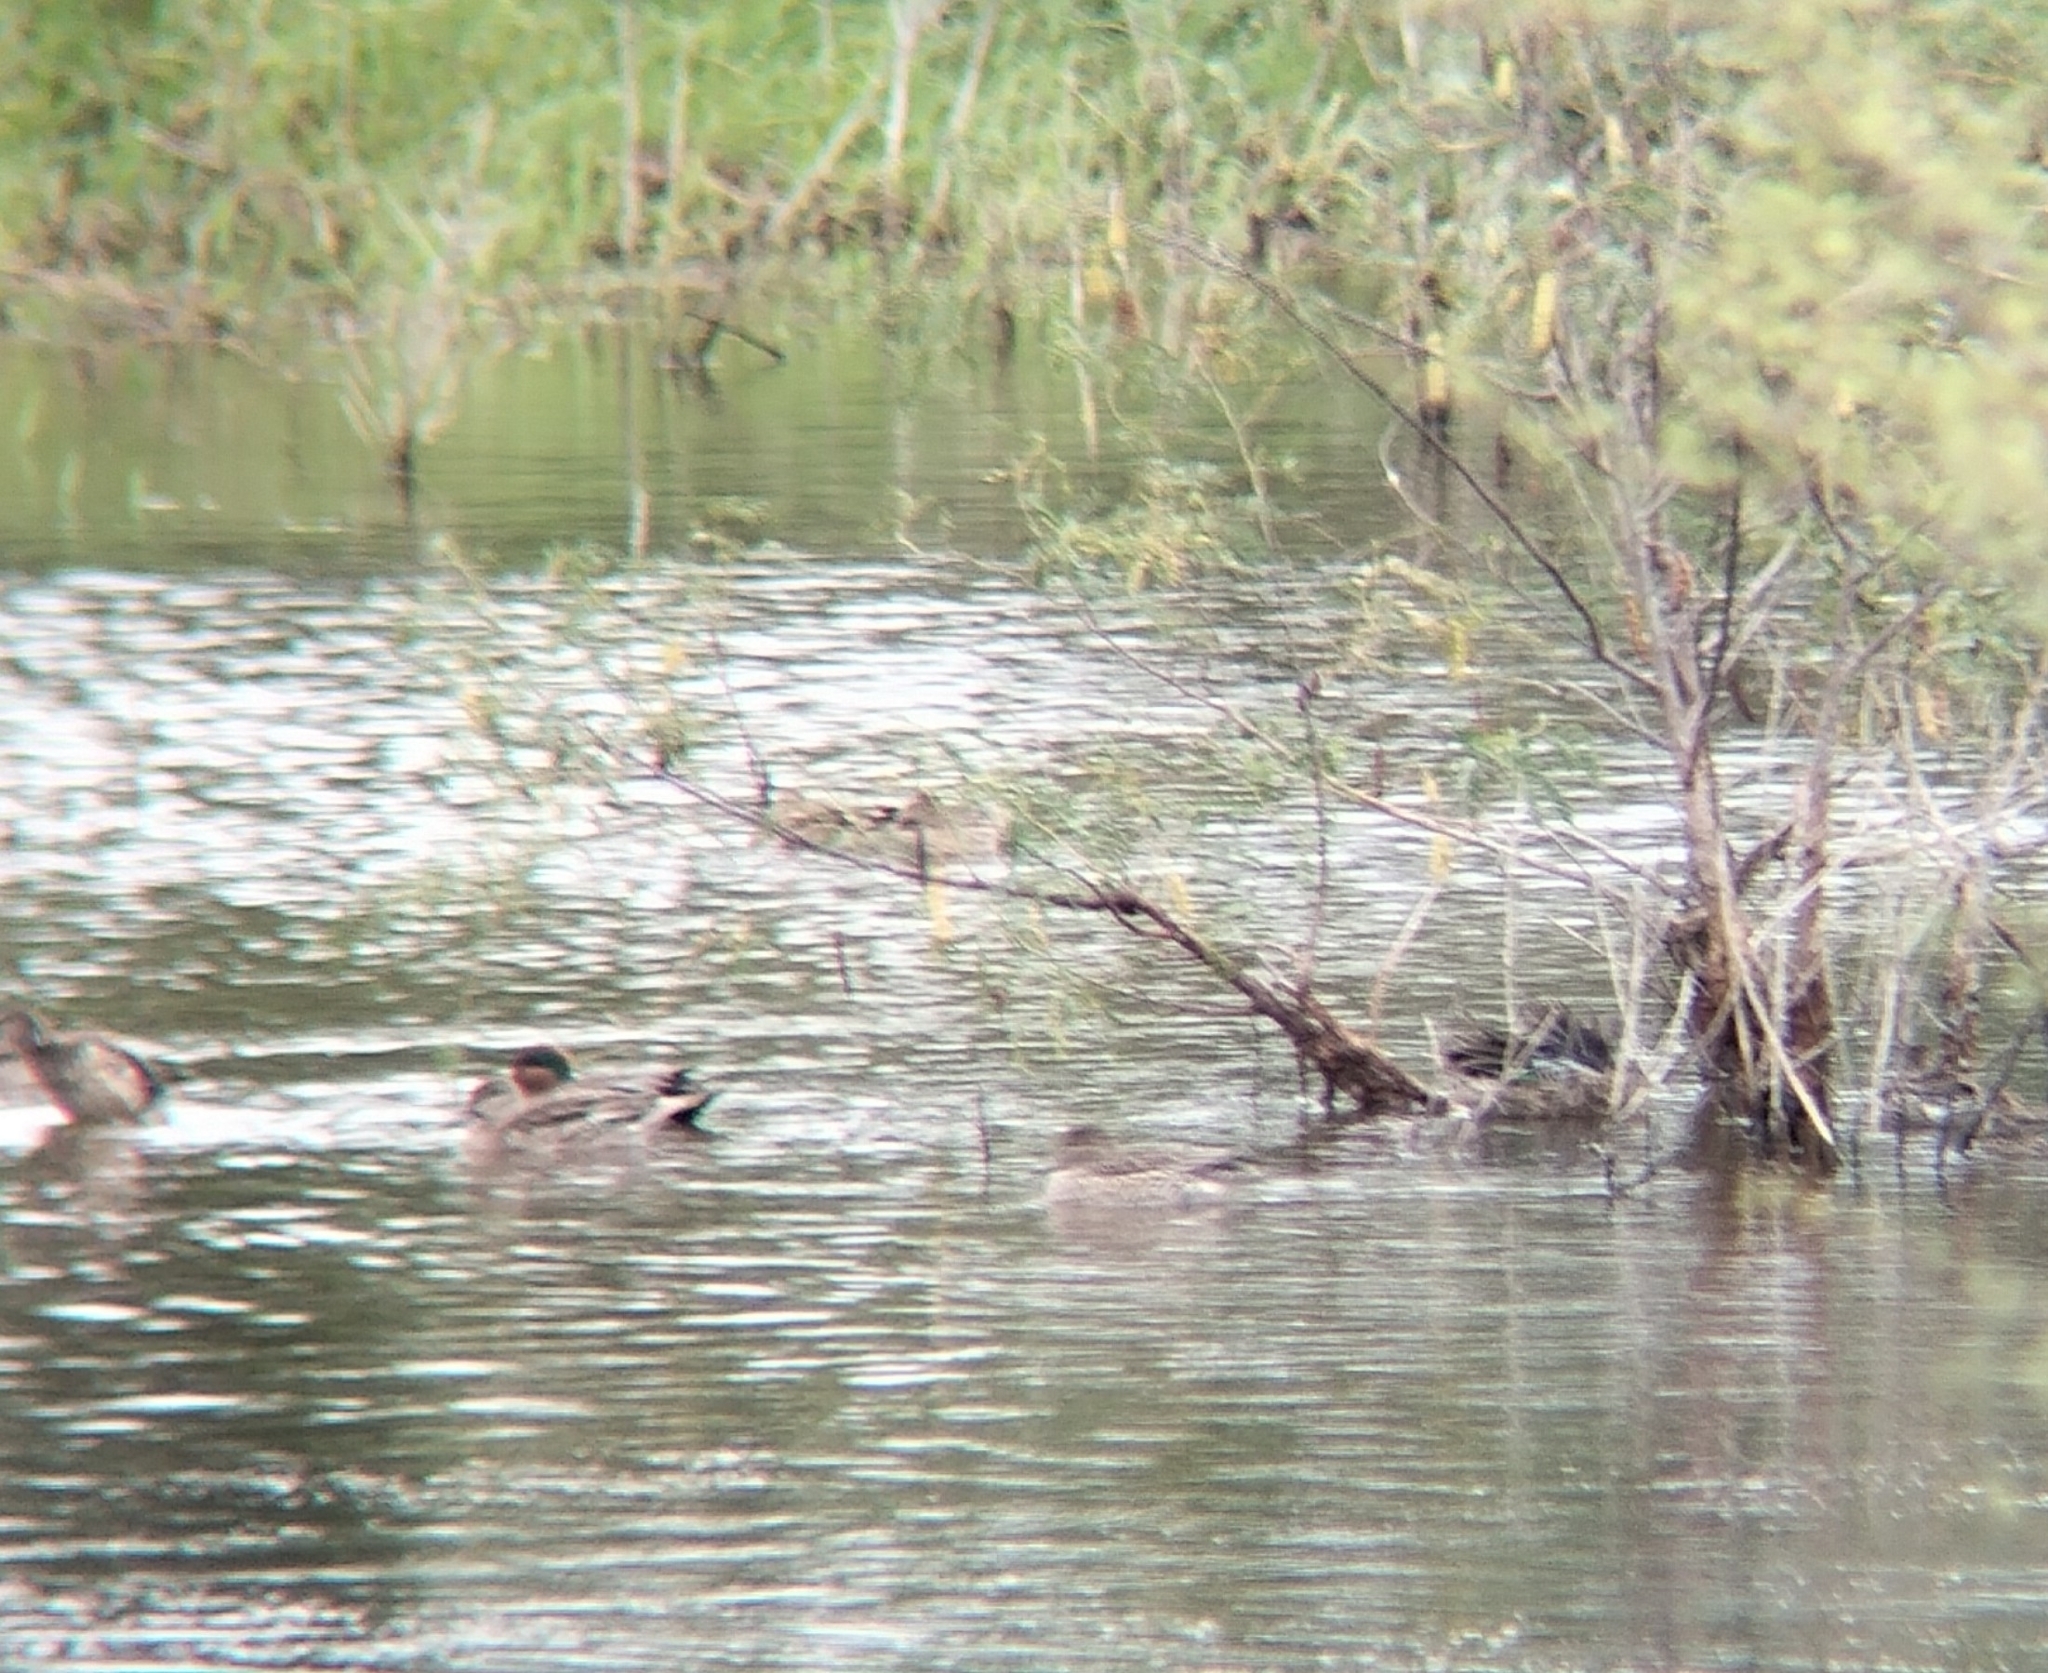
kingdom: Animalia
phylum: Chordata
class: Aves
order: Anseriformes
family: Anatidae
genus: Anas
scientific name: Anas crecca
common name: Eurasian teal
